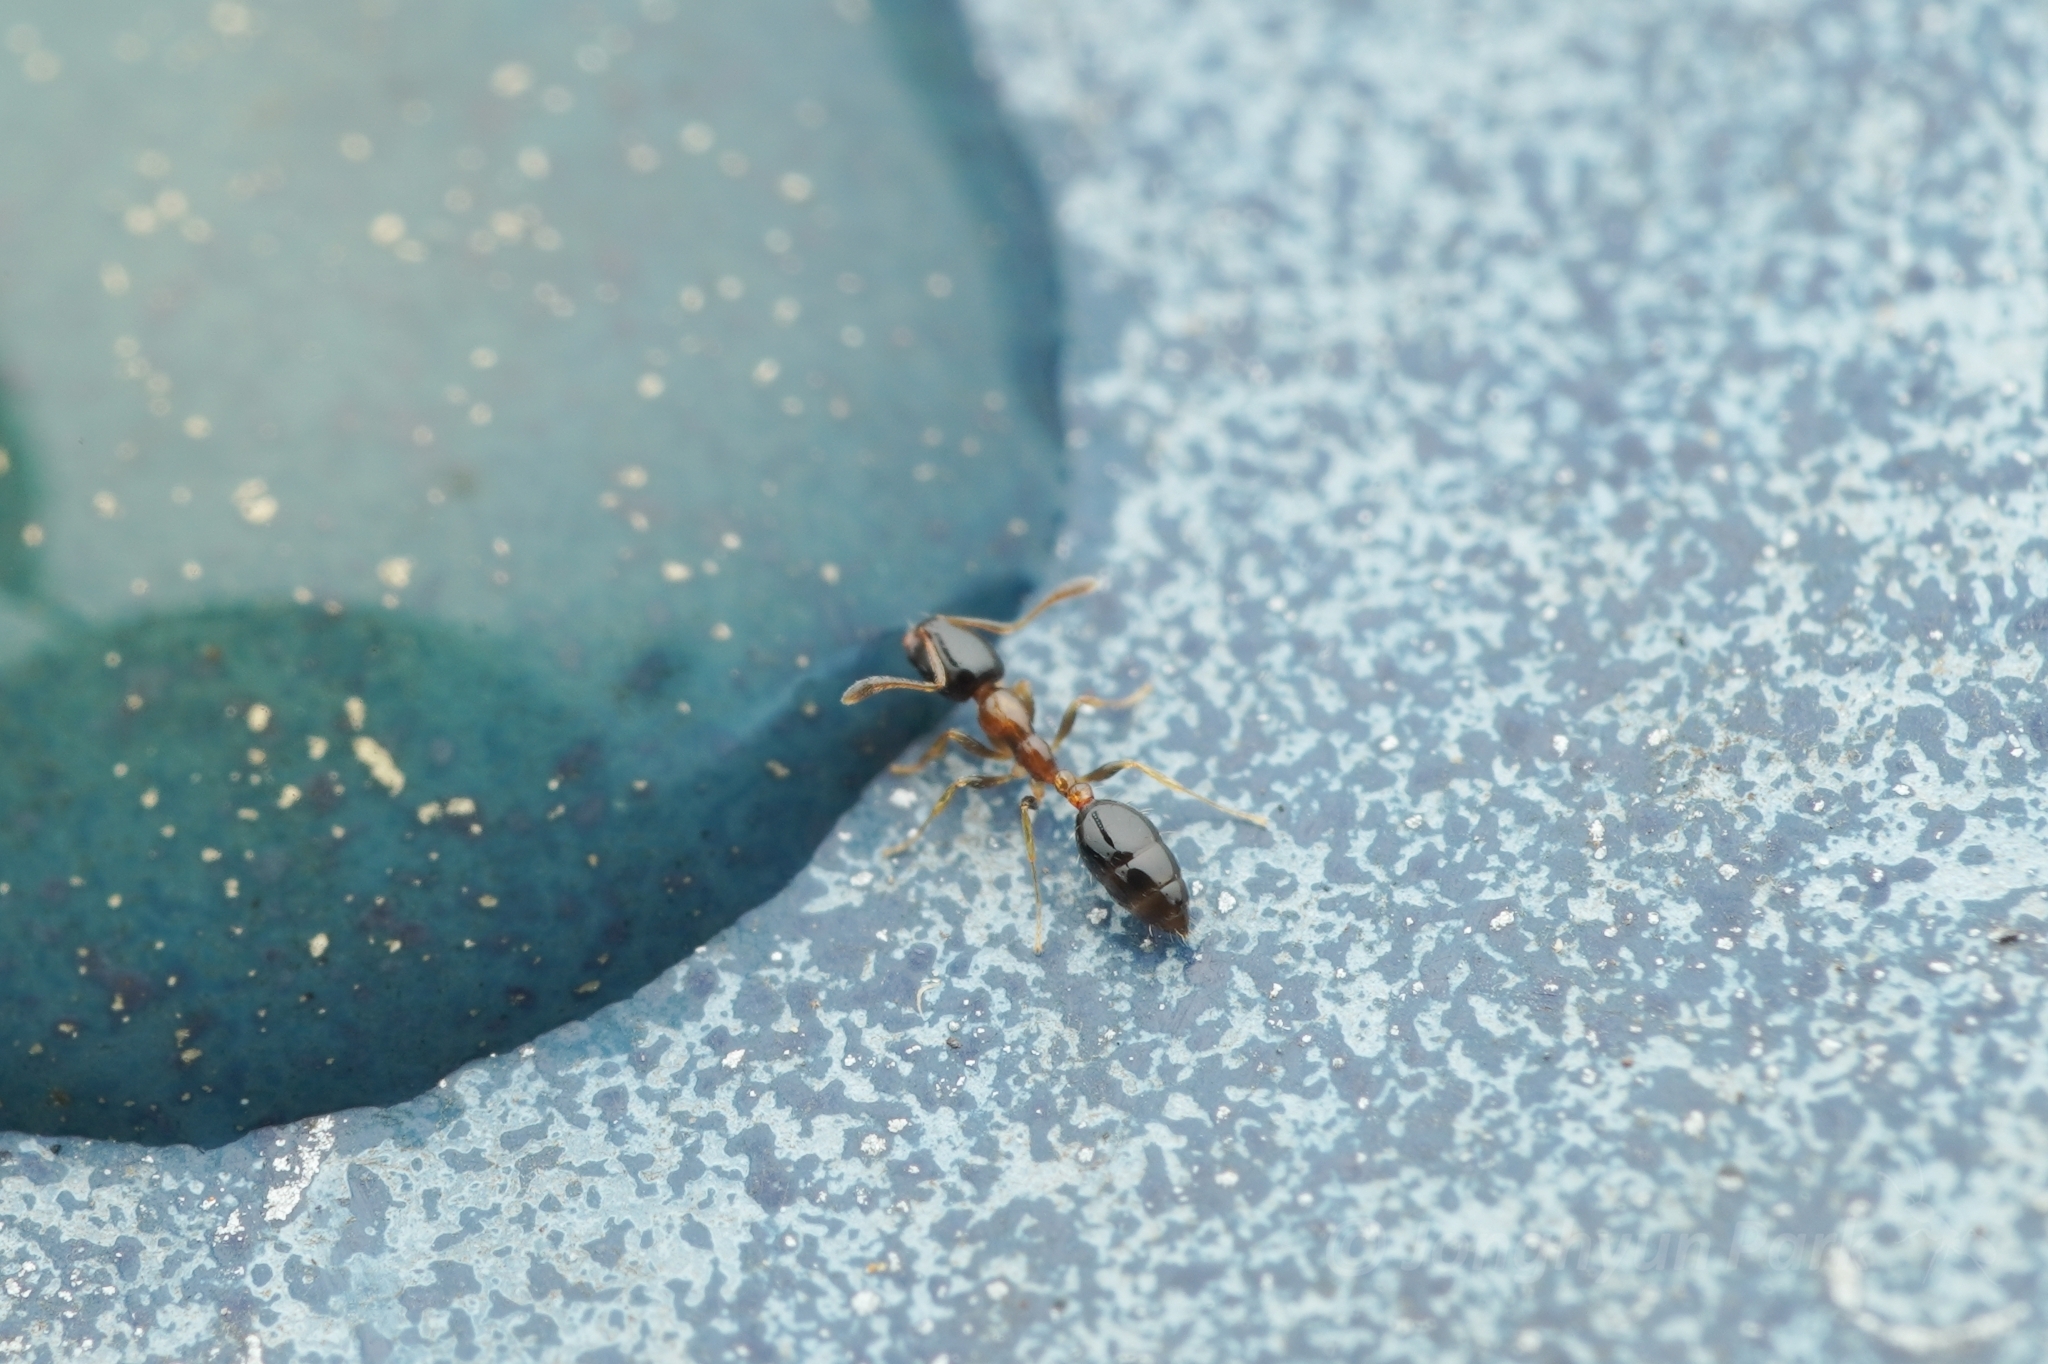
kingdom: Animalia
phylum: Arthropoda
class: Insecta
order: Hymenoptera
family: Formicidae
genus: Monomorium
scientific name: Monomorium floricola
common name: Bicolored trailing ant
